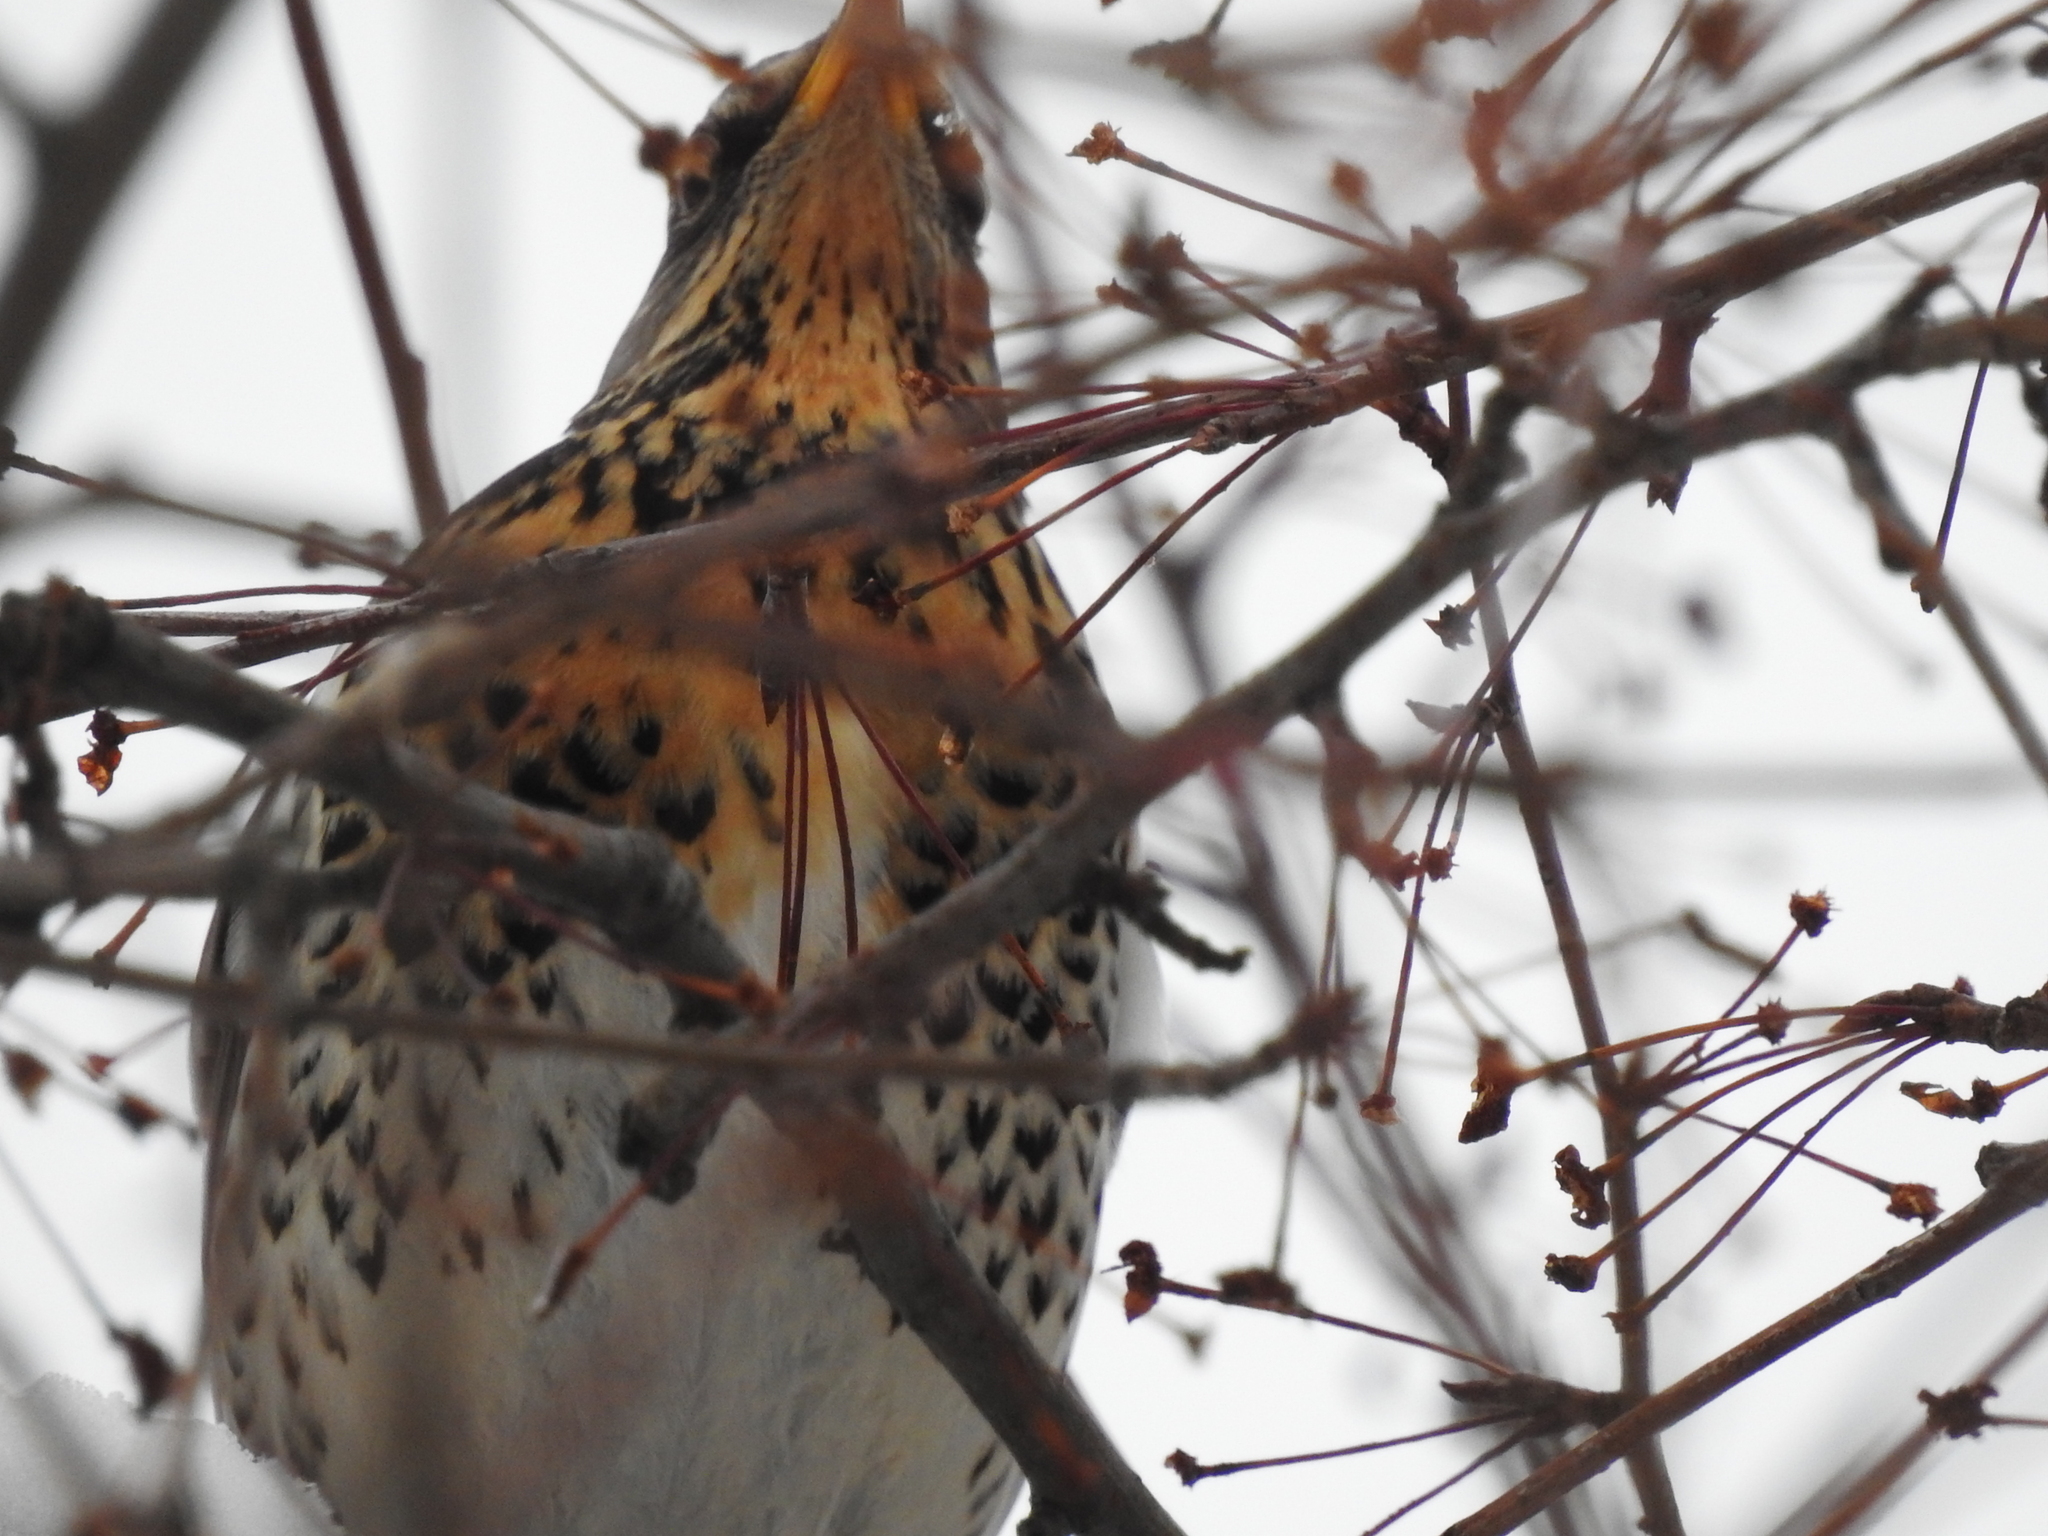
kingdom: Animalia
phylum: Chordata
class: Aves
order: Passeriformes
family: Turdidae
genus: Turdus
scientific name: Turdus pilaris
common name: Fieldfare
